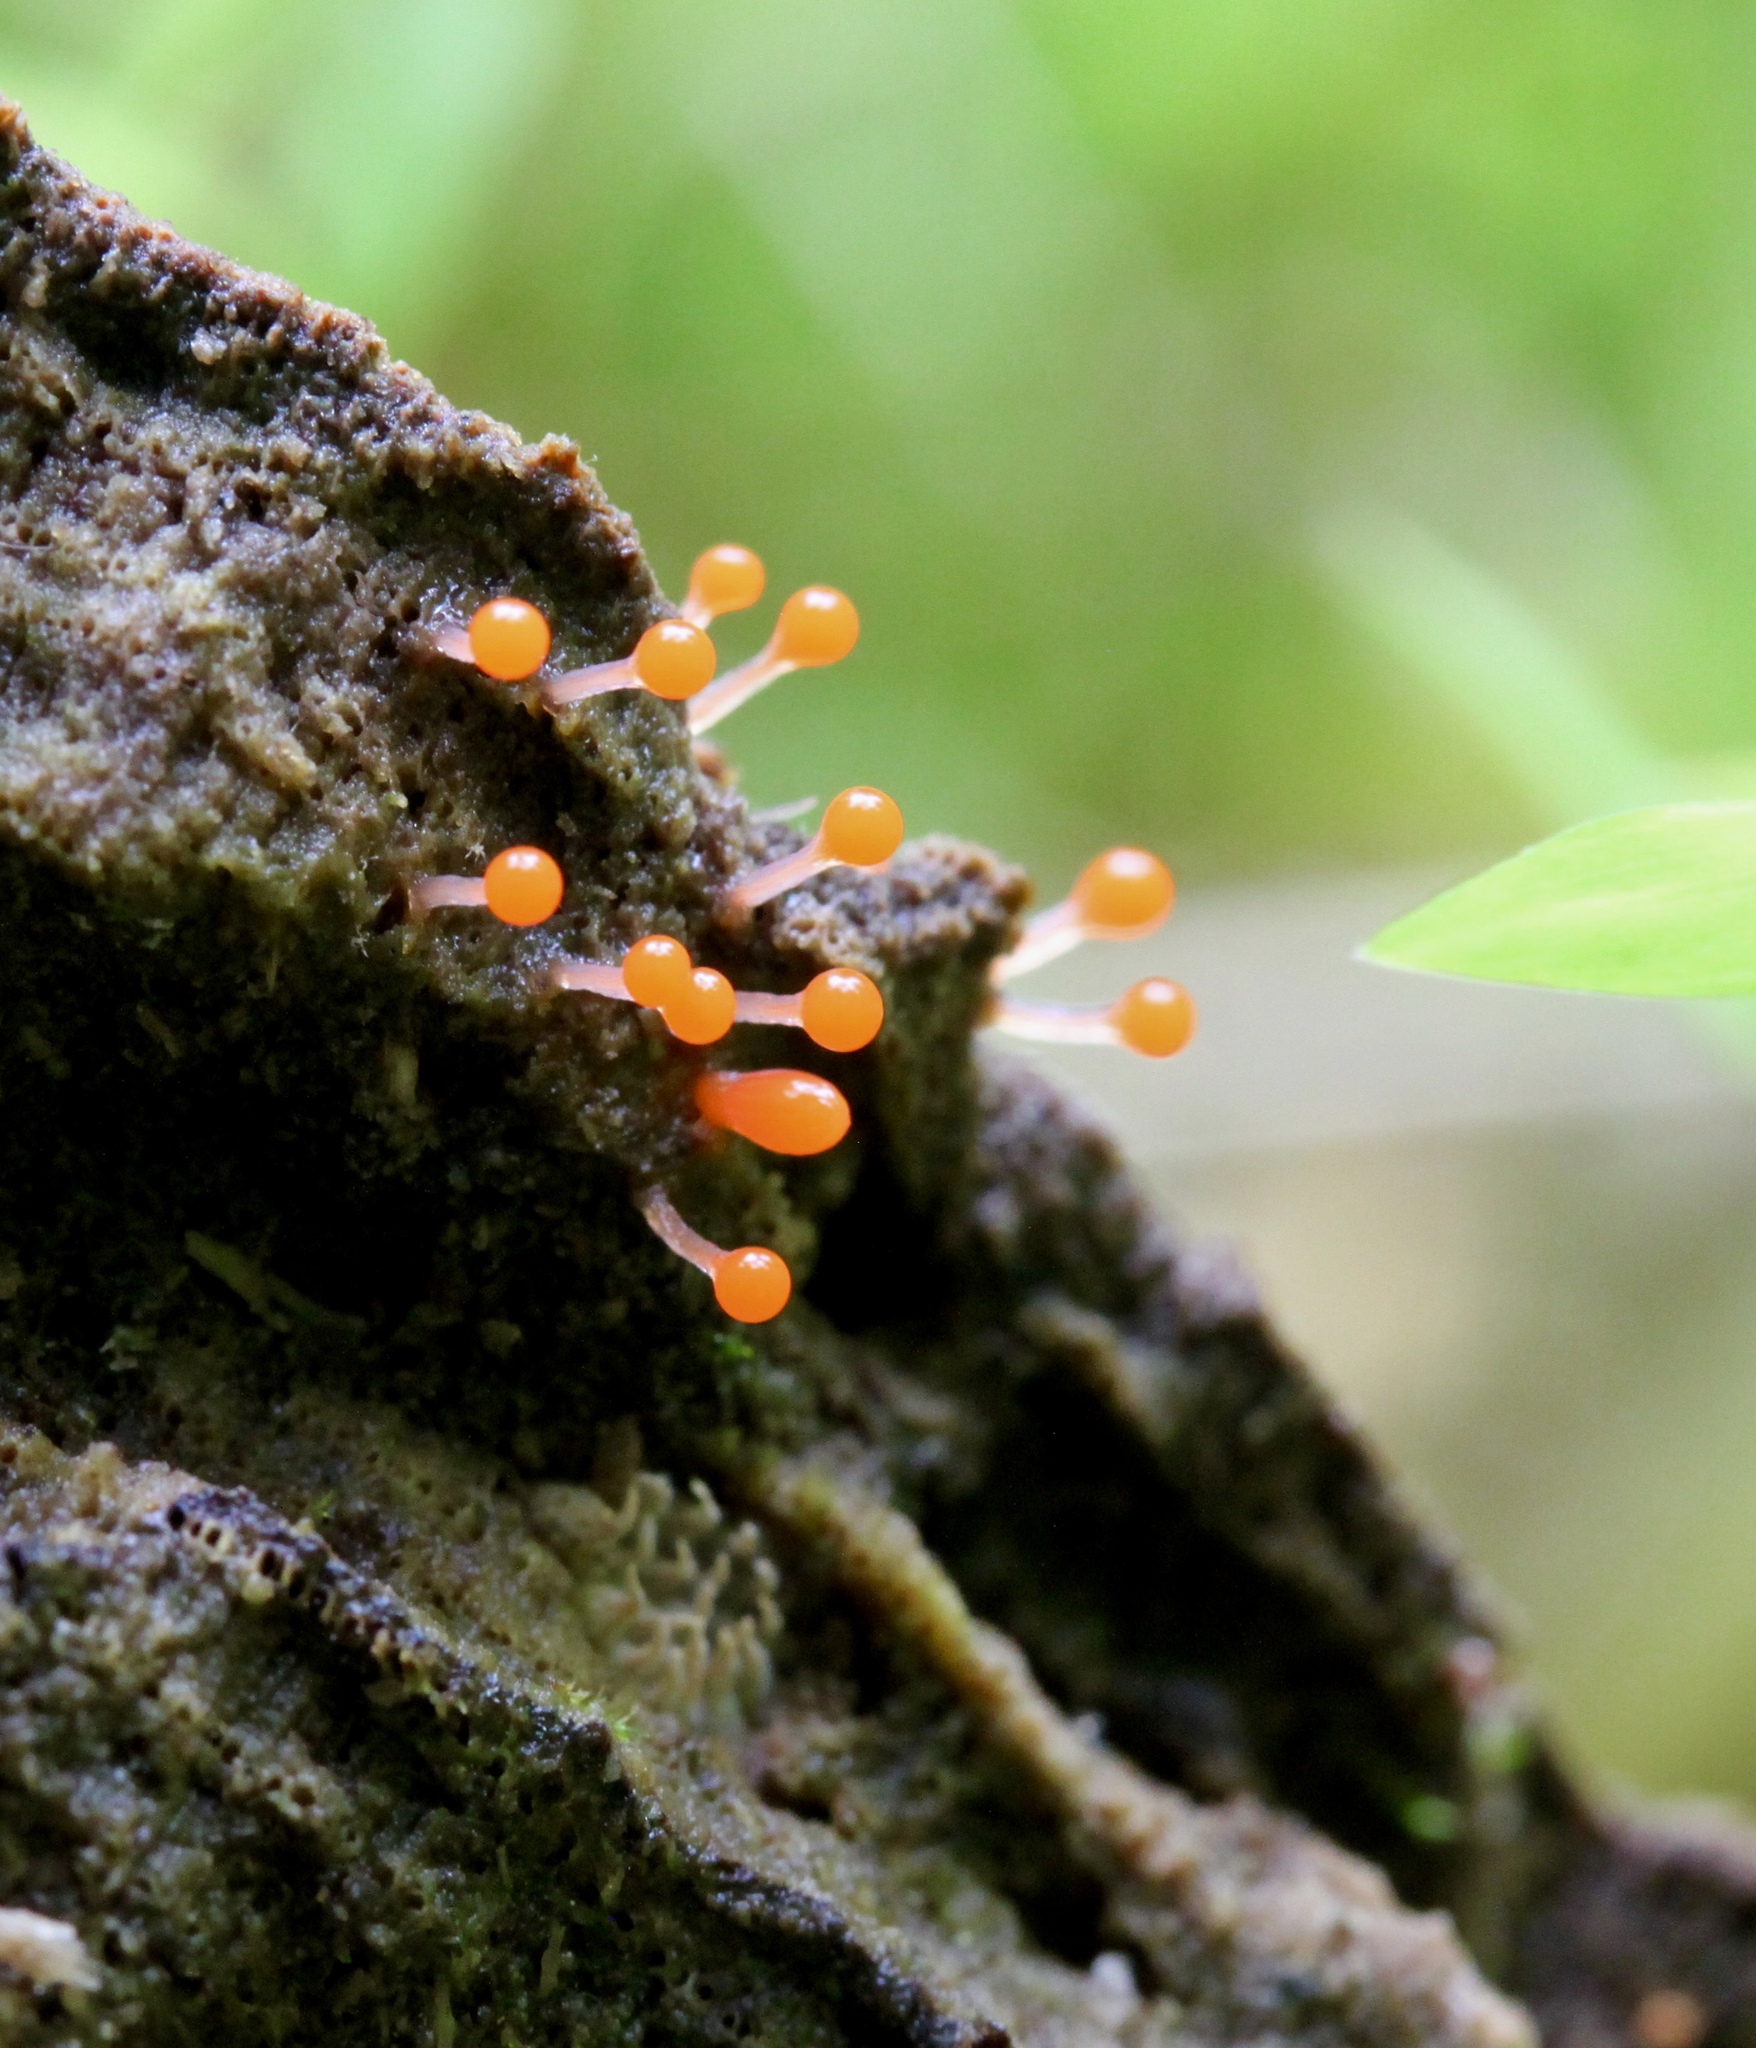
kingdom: Protozoa
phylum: Mycetozoa
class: Myxomycetes
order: Trichiales
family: Arcyriaceae
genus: Hemitrichia
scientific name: Hemitrichia calyculata
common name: Push pin slime mold
